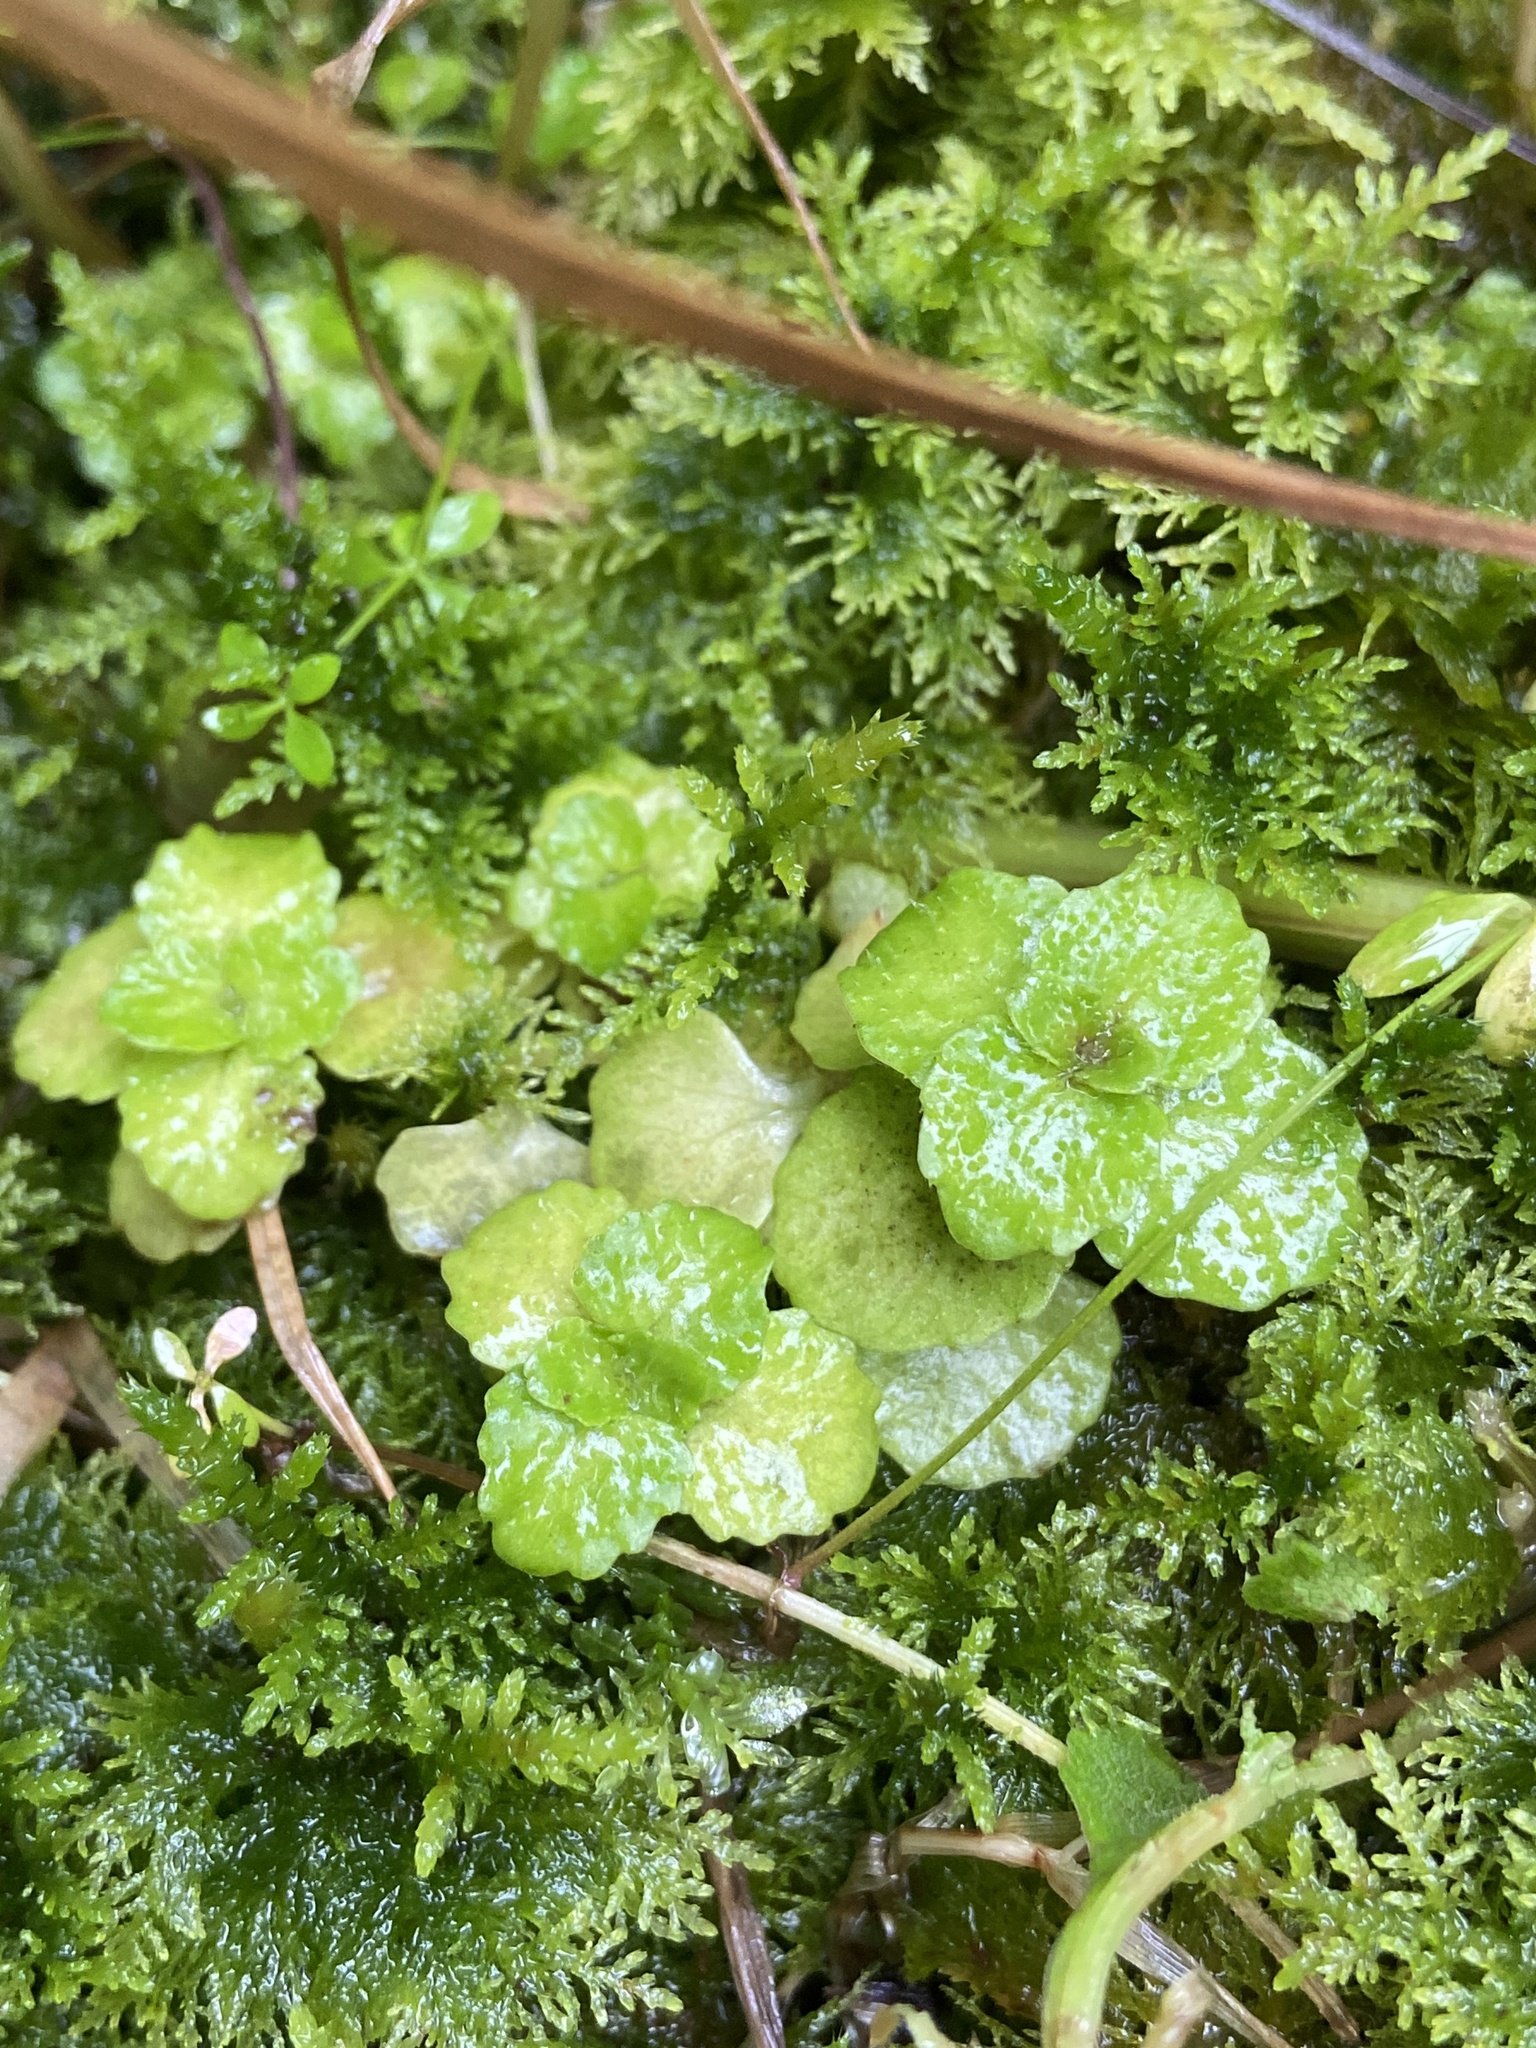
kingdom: Plantae
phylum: Tracheophyta
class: Magnoliopsida
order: Saxifragales
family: Saxifragaceae
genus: Chrysosplenium
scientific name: Chrysosplenium oppositifolium
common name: Opposite-leaved golden-saxifrage
